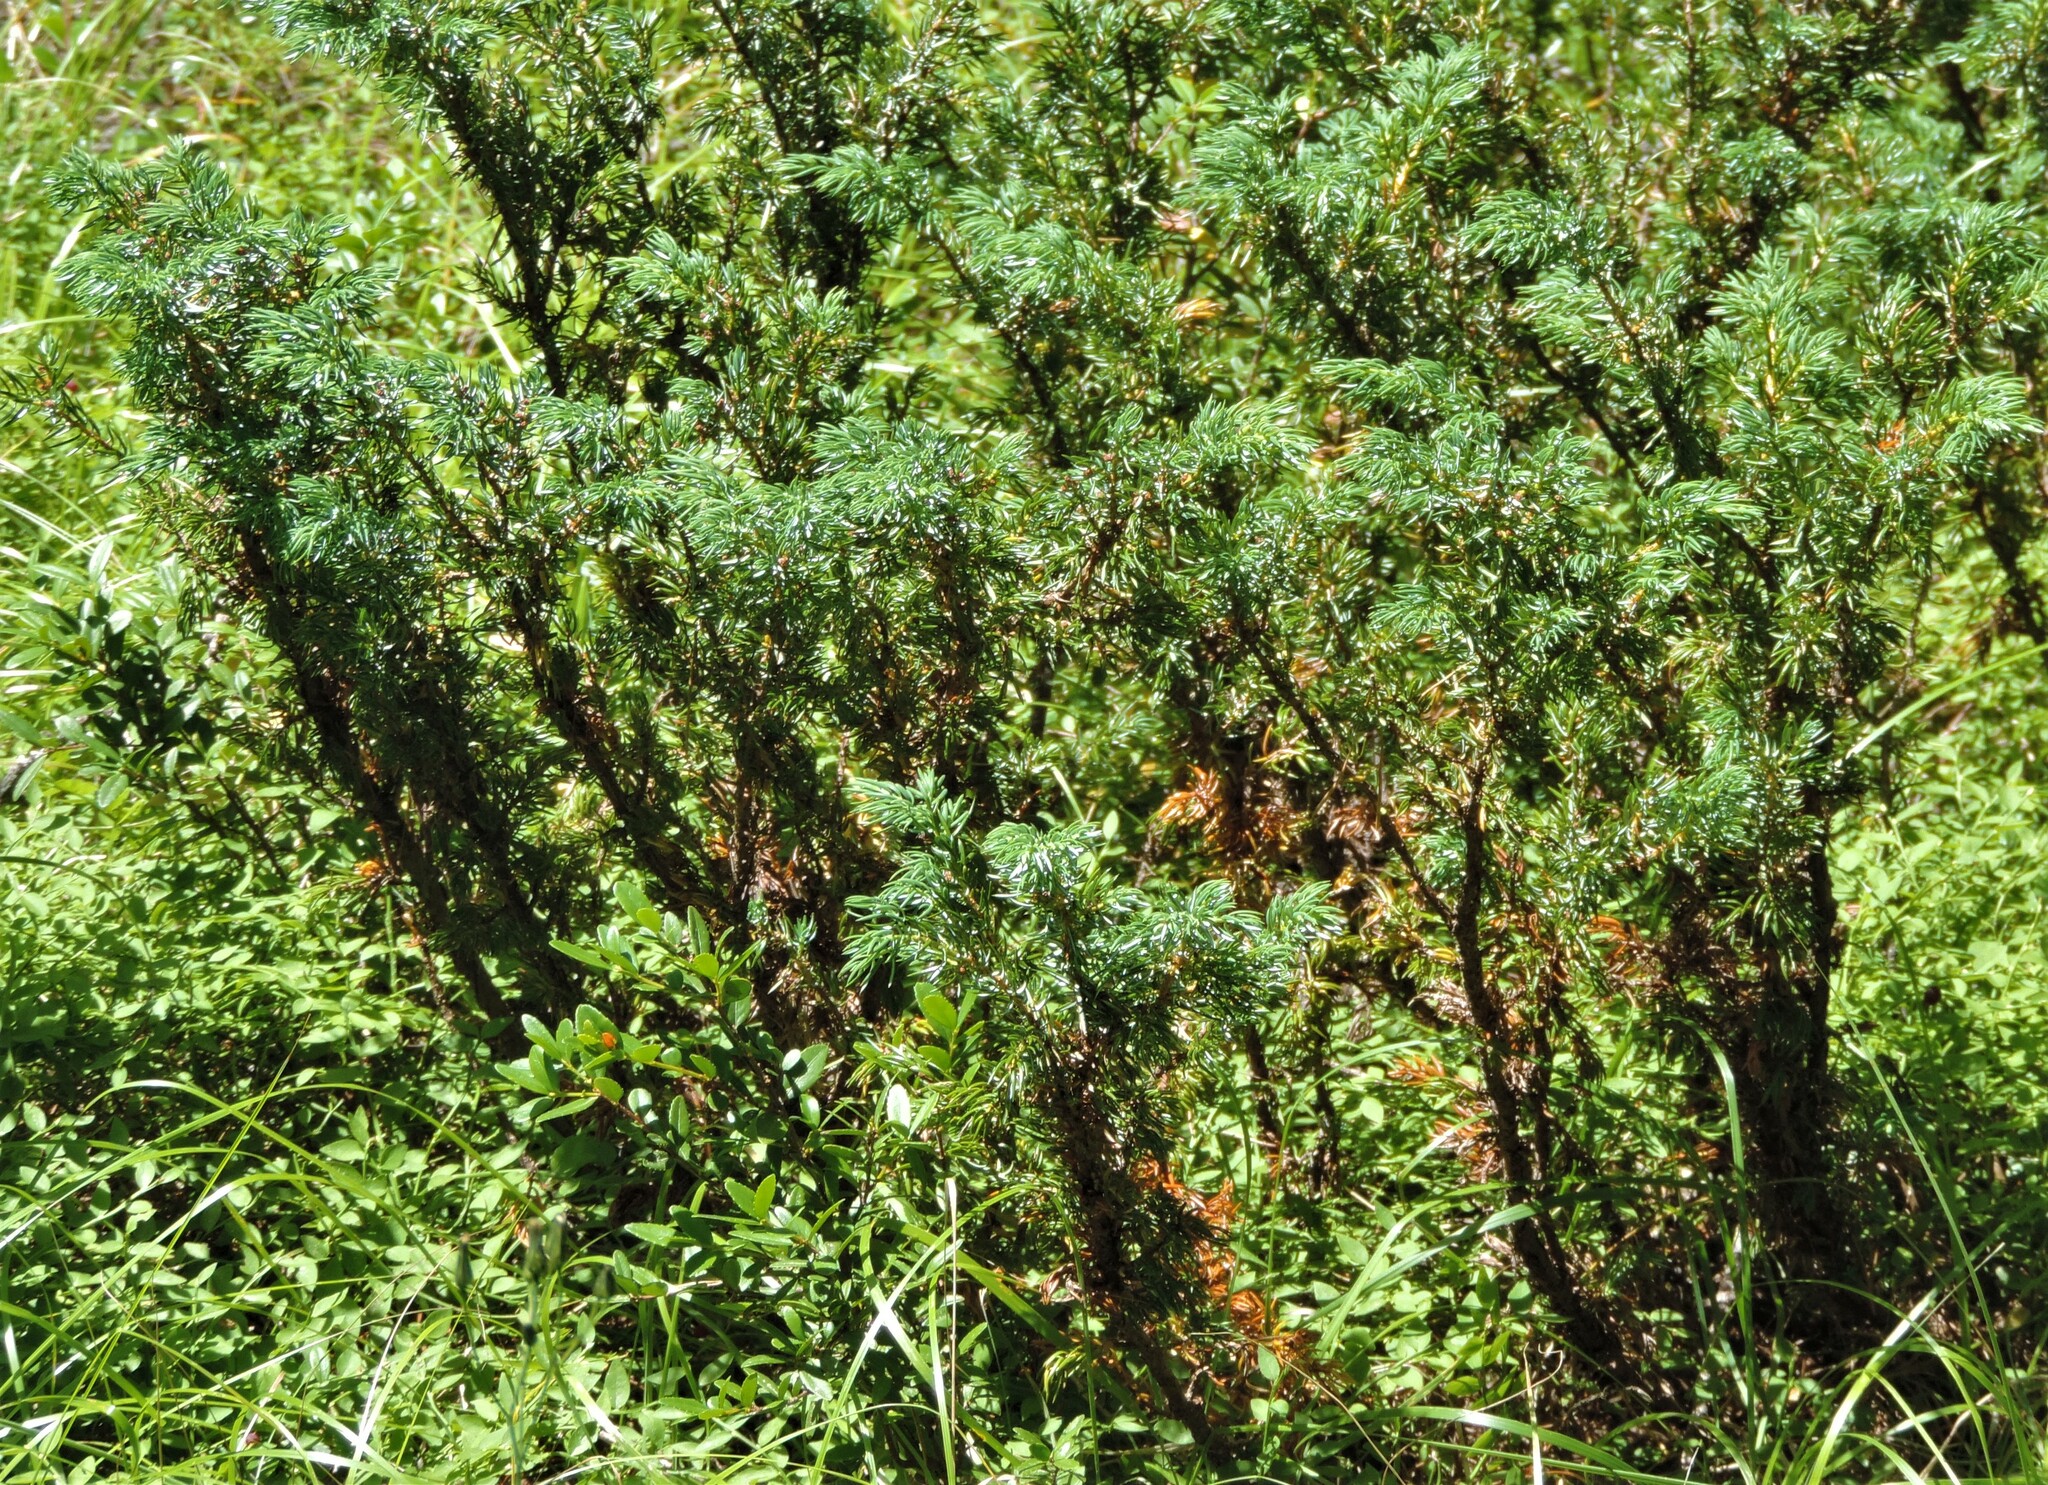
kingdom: Plantae
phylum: Tracheophyta
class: Pinopsida
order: Pinales
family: Cupressaceae
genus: Juniperus
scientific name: Juniperus communis
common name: Common juniper
